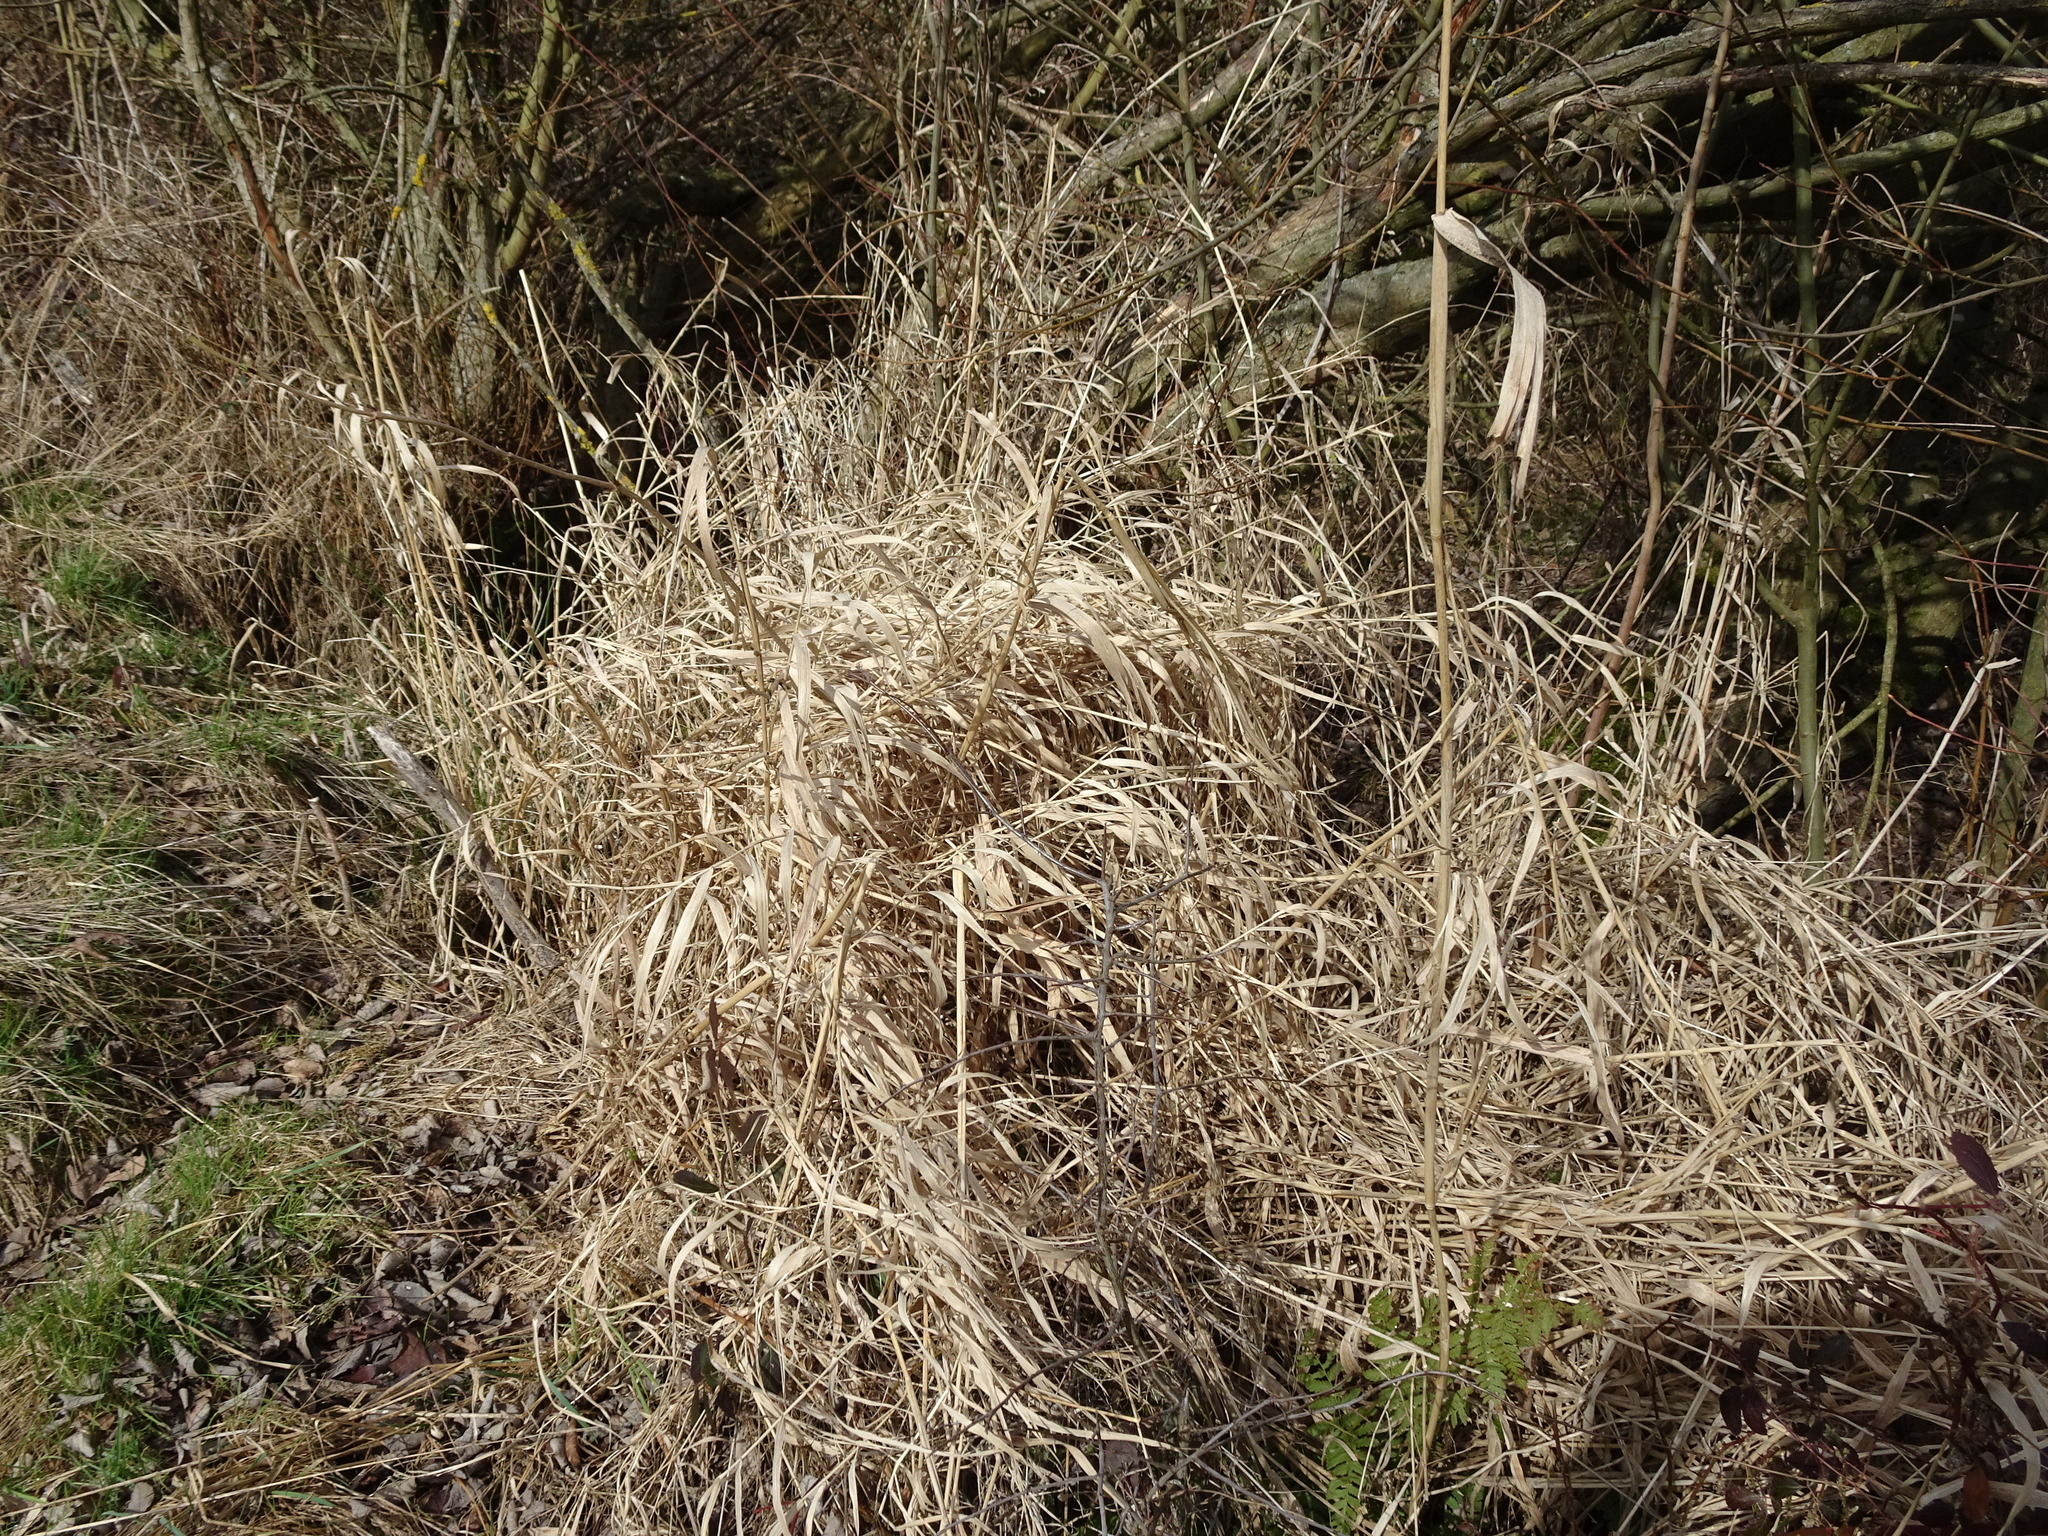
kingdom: Plantae
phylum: Tracheophyta
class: Liliopsida
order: Poales
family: Poaceae
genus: Phalaris
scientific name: Phalaris arundinacea
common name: Reed canary-grass
